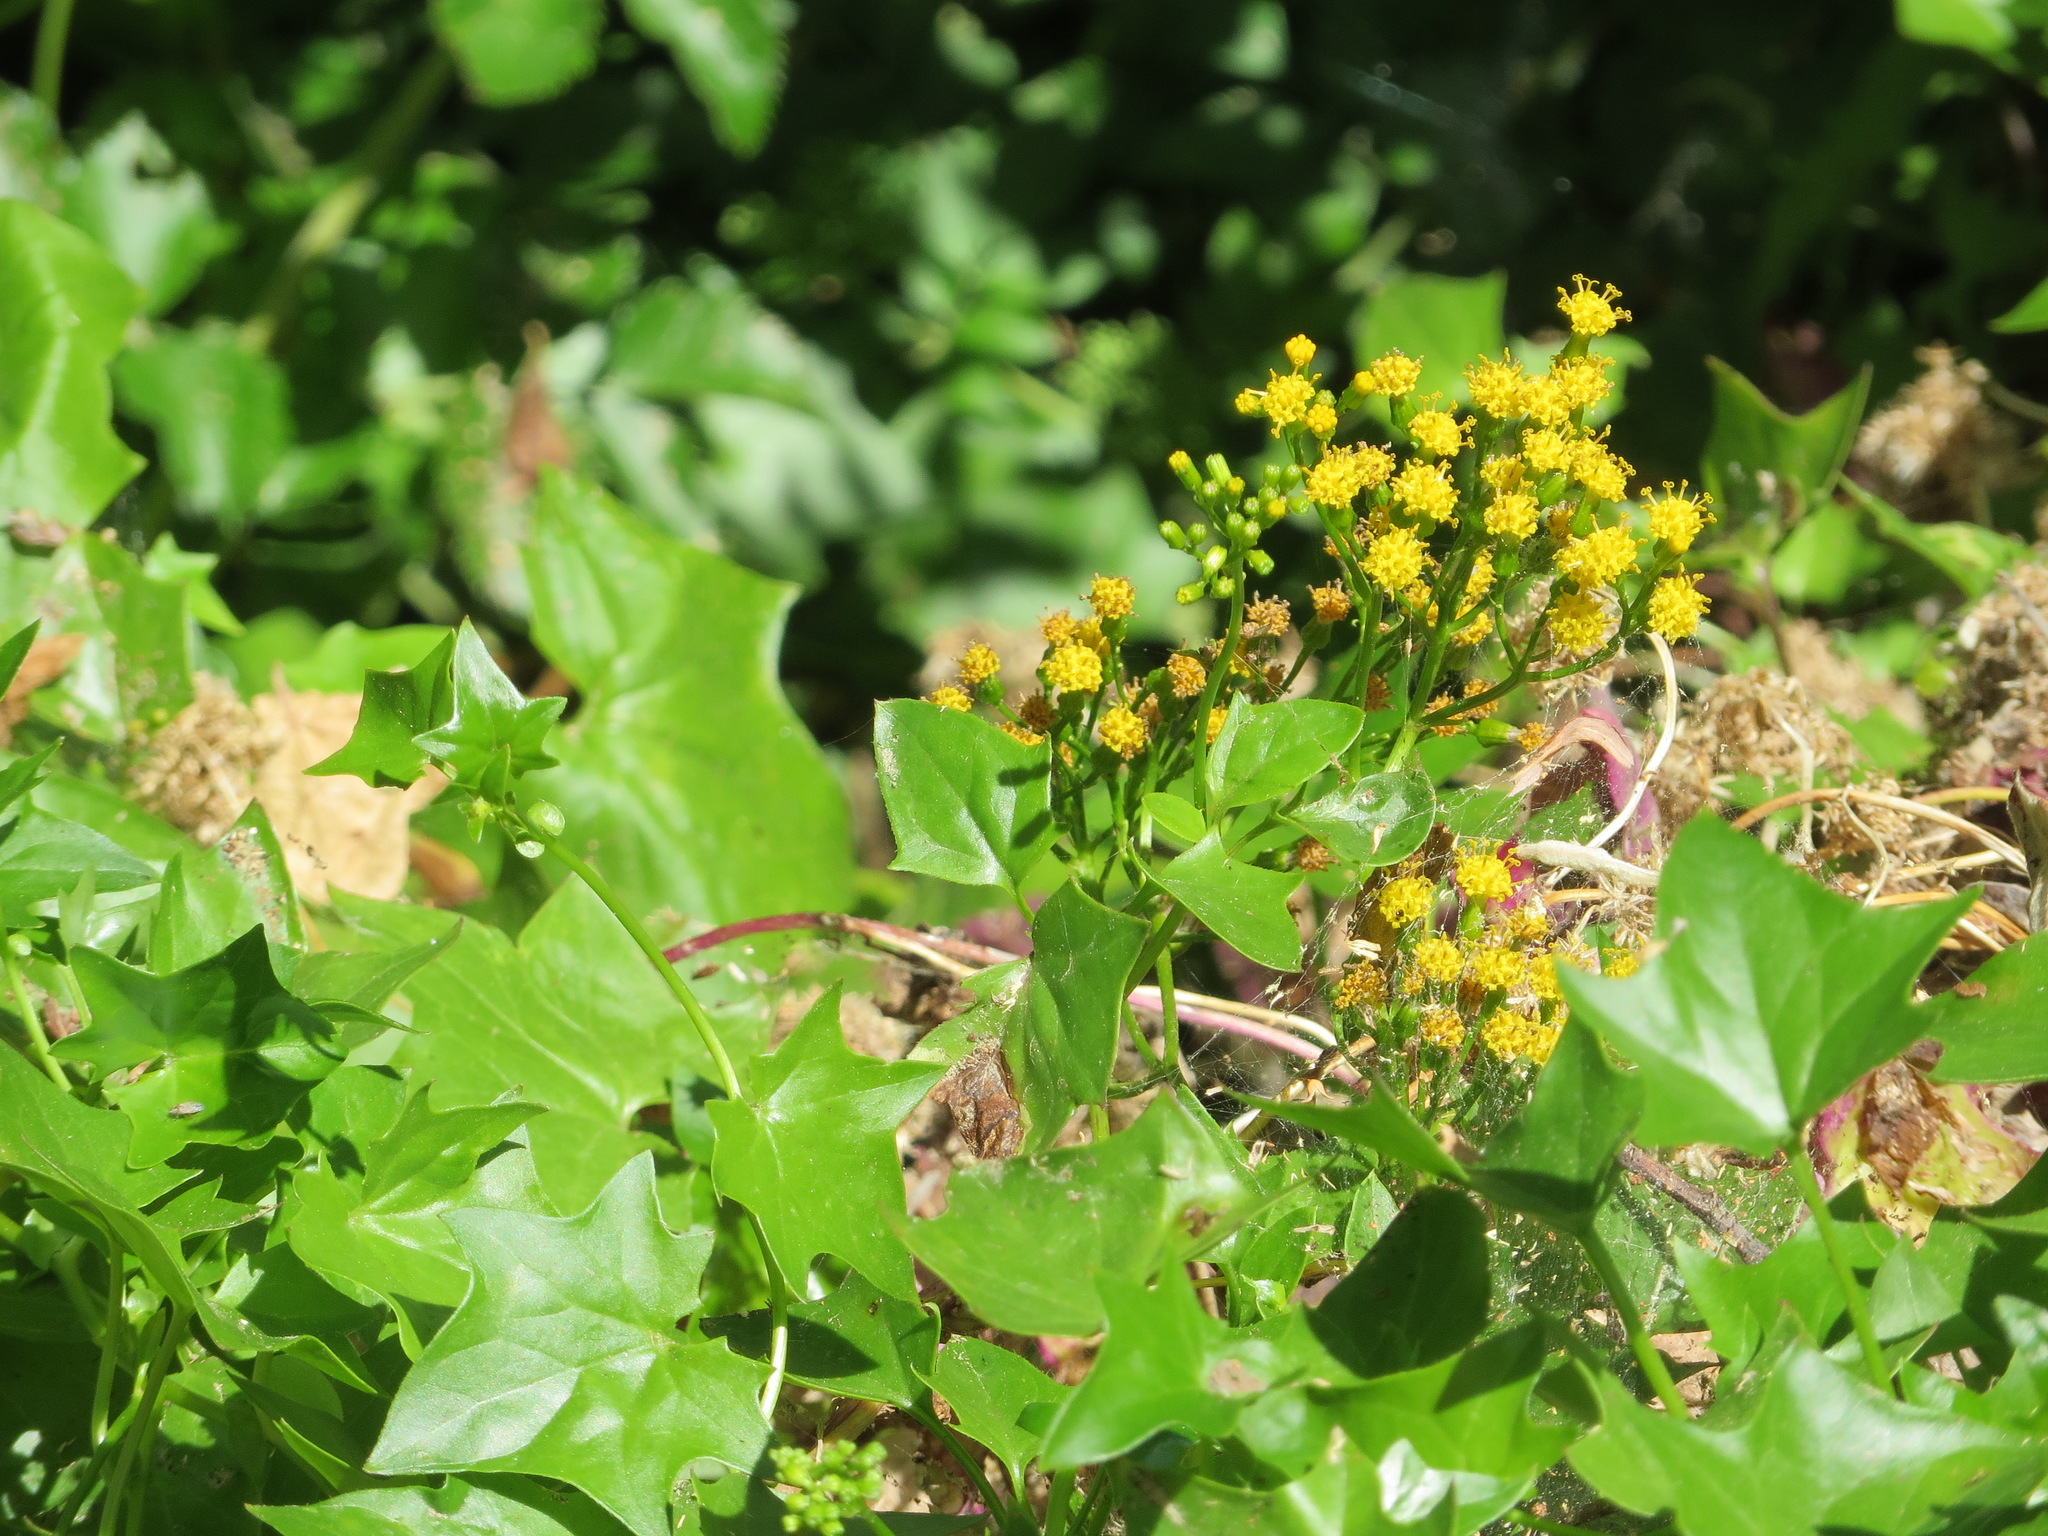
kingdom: Plantae
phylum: Tracheophyta
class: Magnoliopsida
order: Asterales
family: Asteraceae
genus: Delairea
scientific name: Delairea odorata
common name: Cape-ivy
